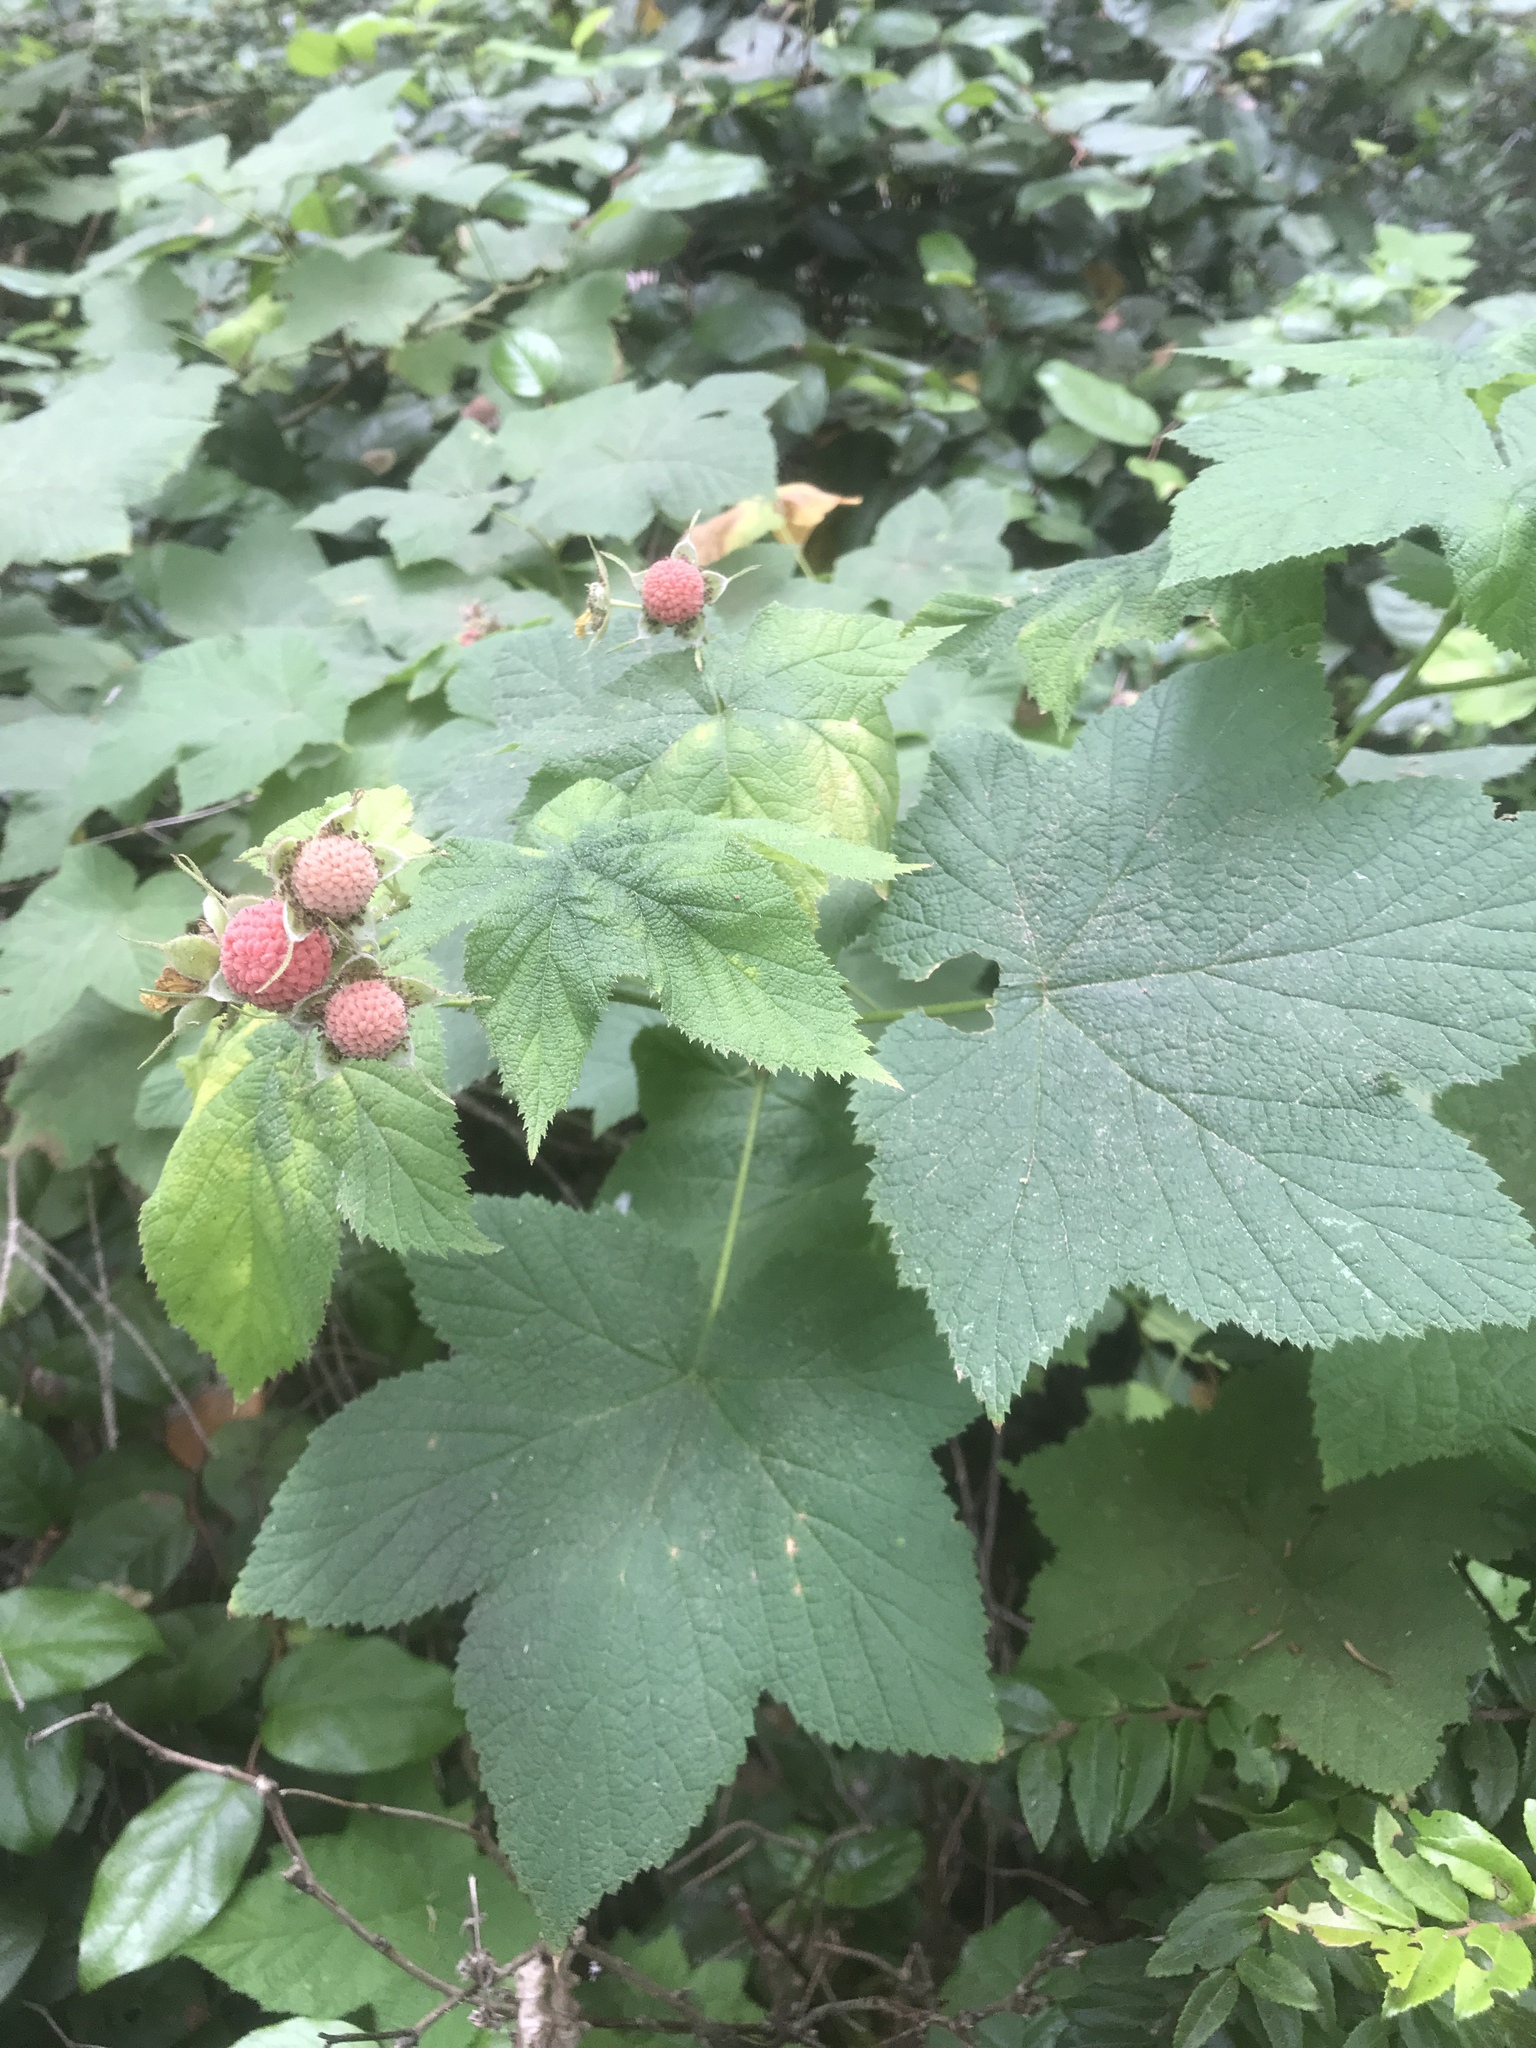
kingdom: Plantae
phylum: Tracheophyta
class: Magnoliopsida
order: Rosales
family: Rosaceae
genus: Rubus
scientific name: Rubus parviflorus
